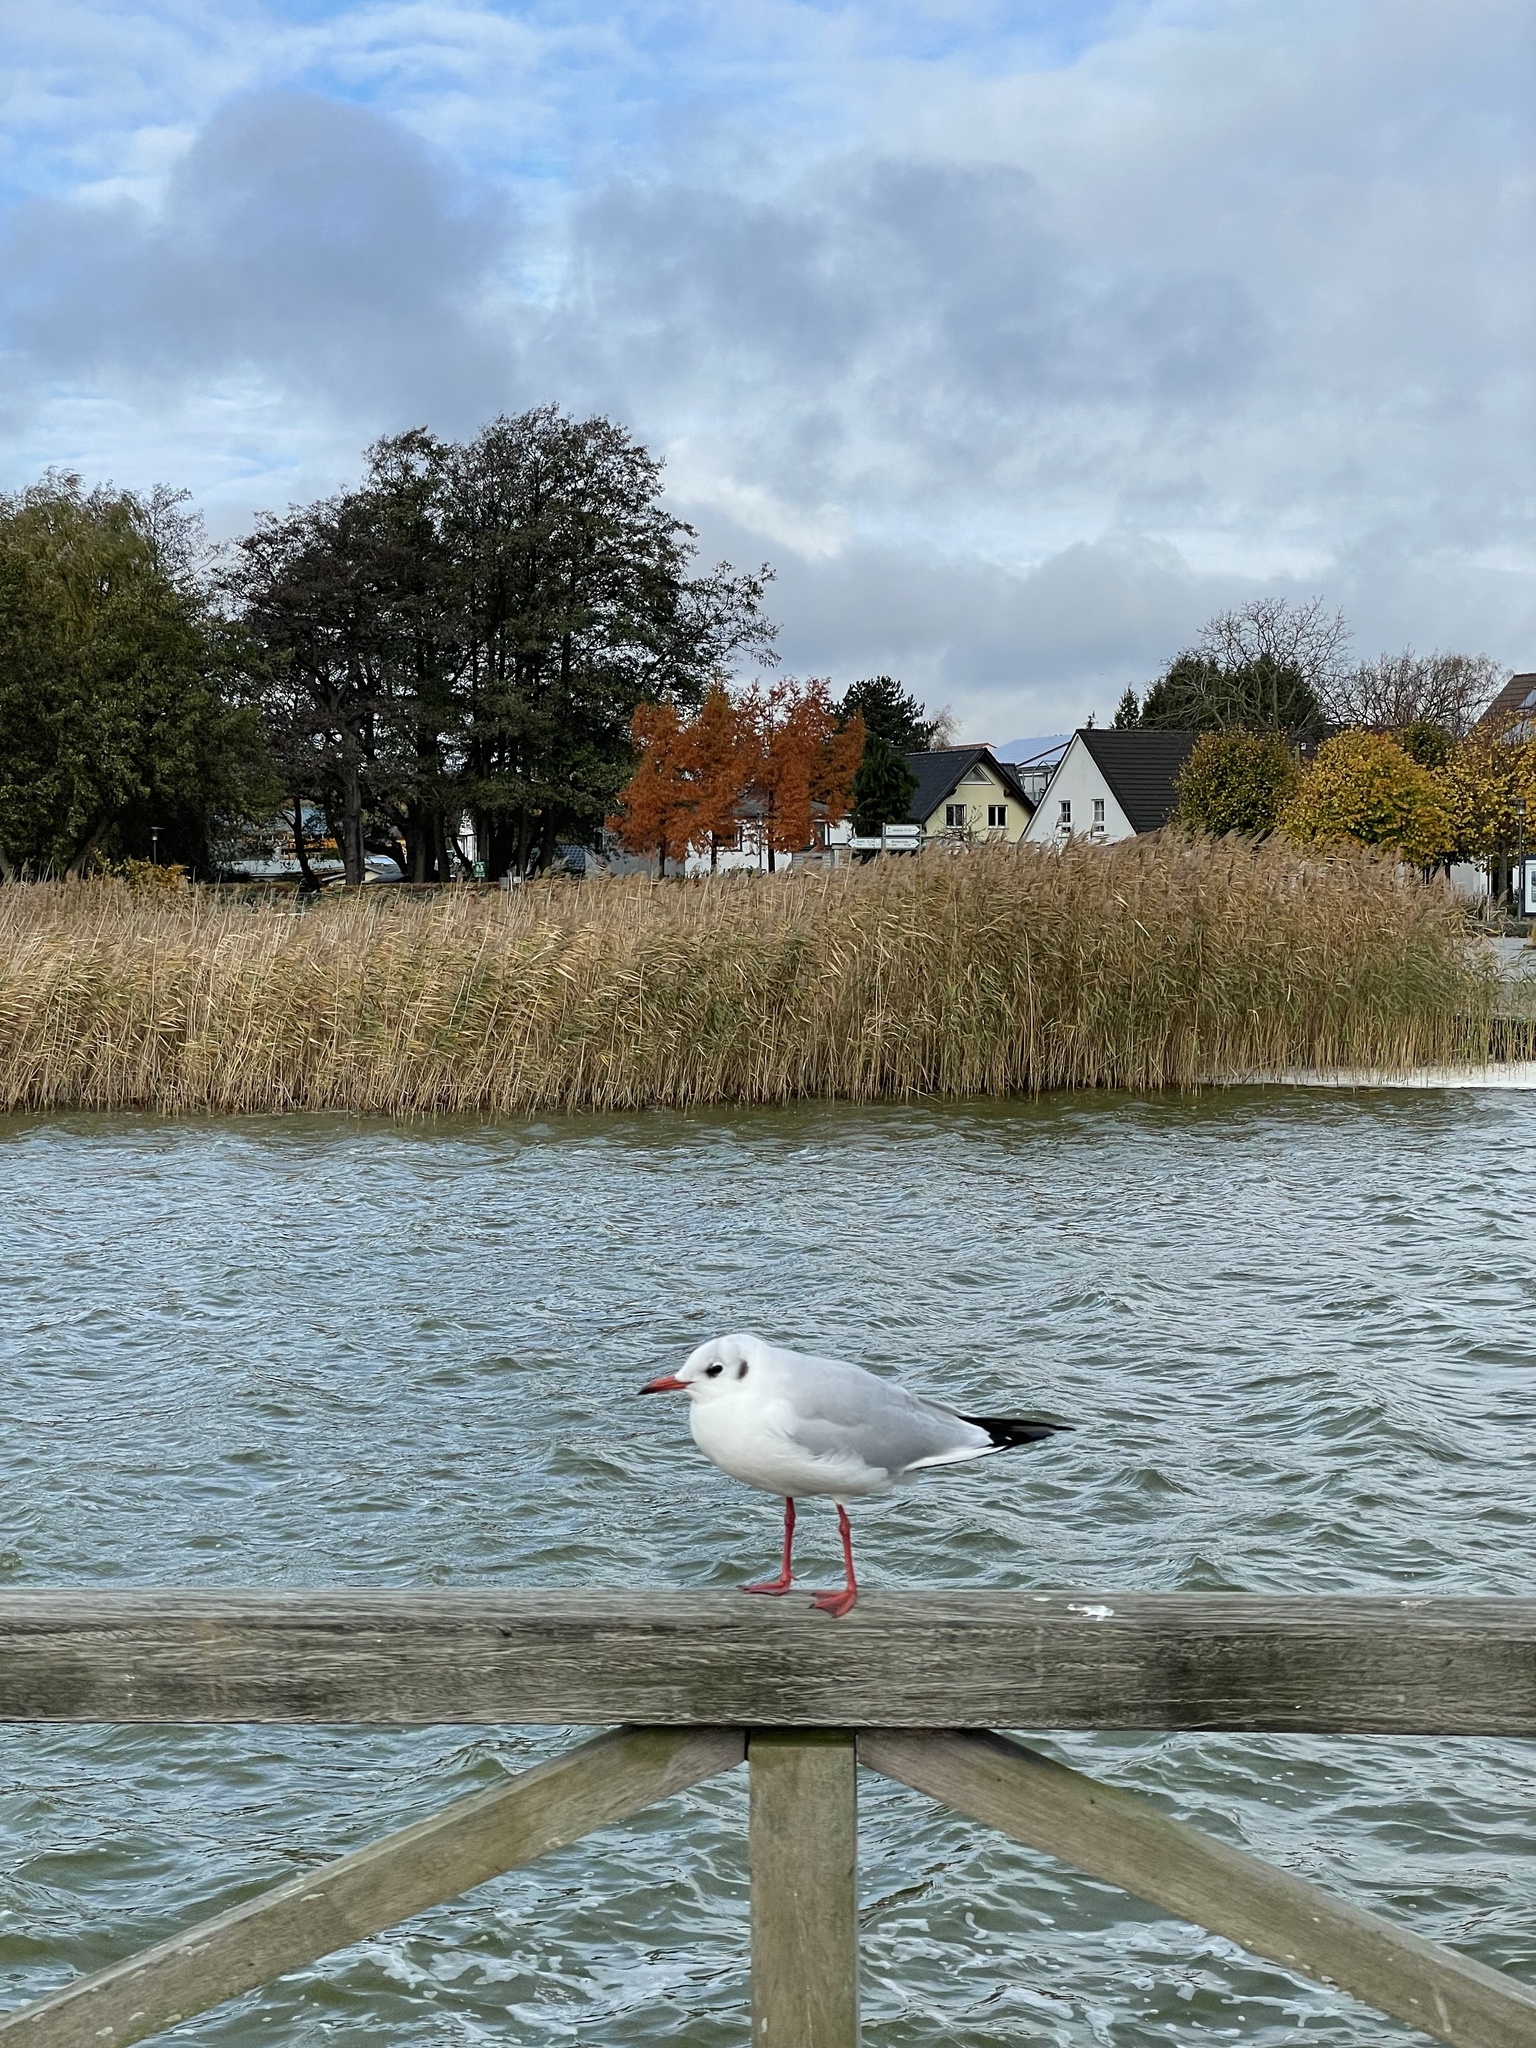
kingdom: Animalia
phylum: Chordata
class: Aves
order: Charadriiformes
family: Laridae
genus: Chroicocephalus
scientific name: Chroicocephalus ridibundus
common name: Black-headed gull
